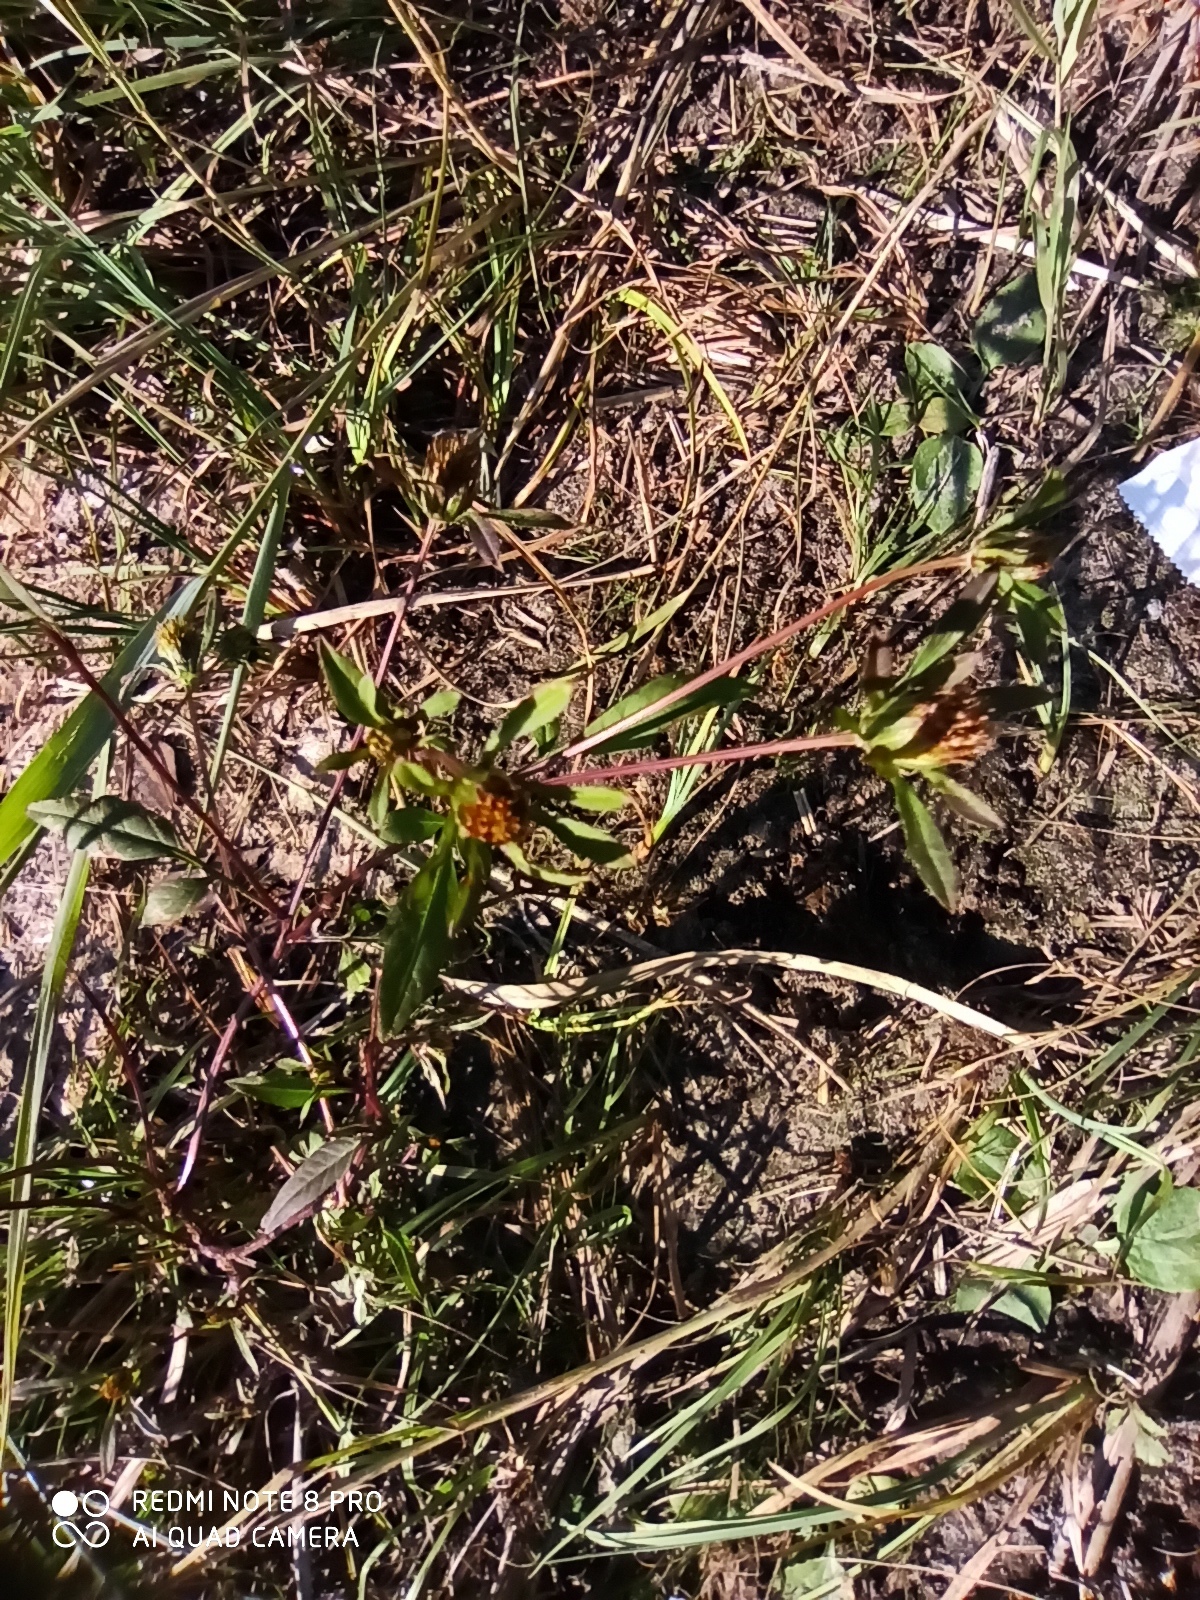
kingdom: Plantae
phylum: Tracheophyta
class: Magnoliopsida
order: Asterales
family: Asteraceae
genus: Bidens
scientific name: Bidens frondosa
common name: Beggarticks
